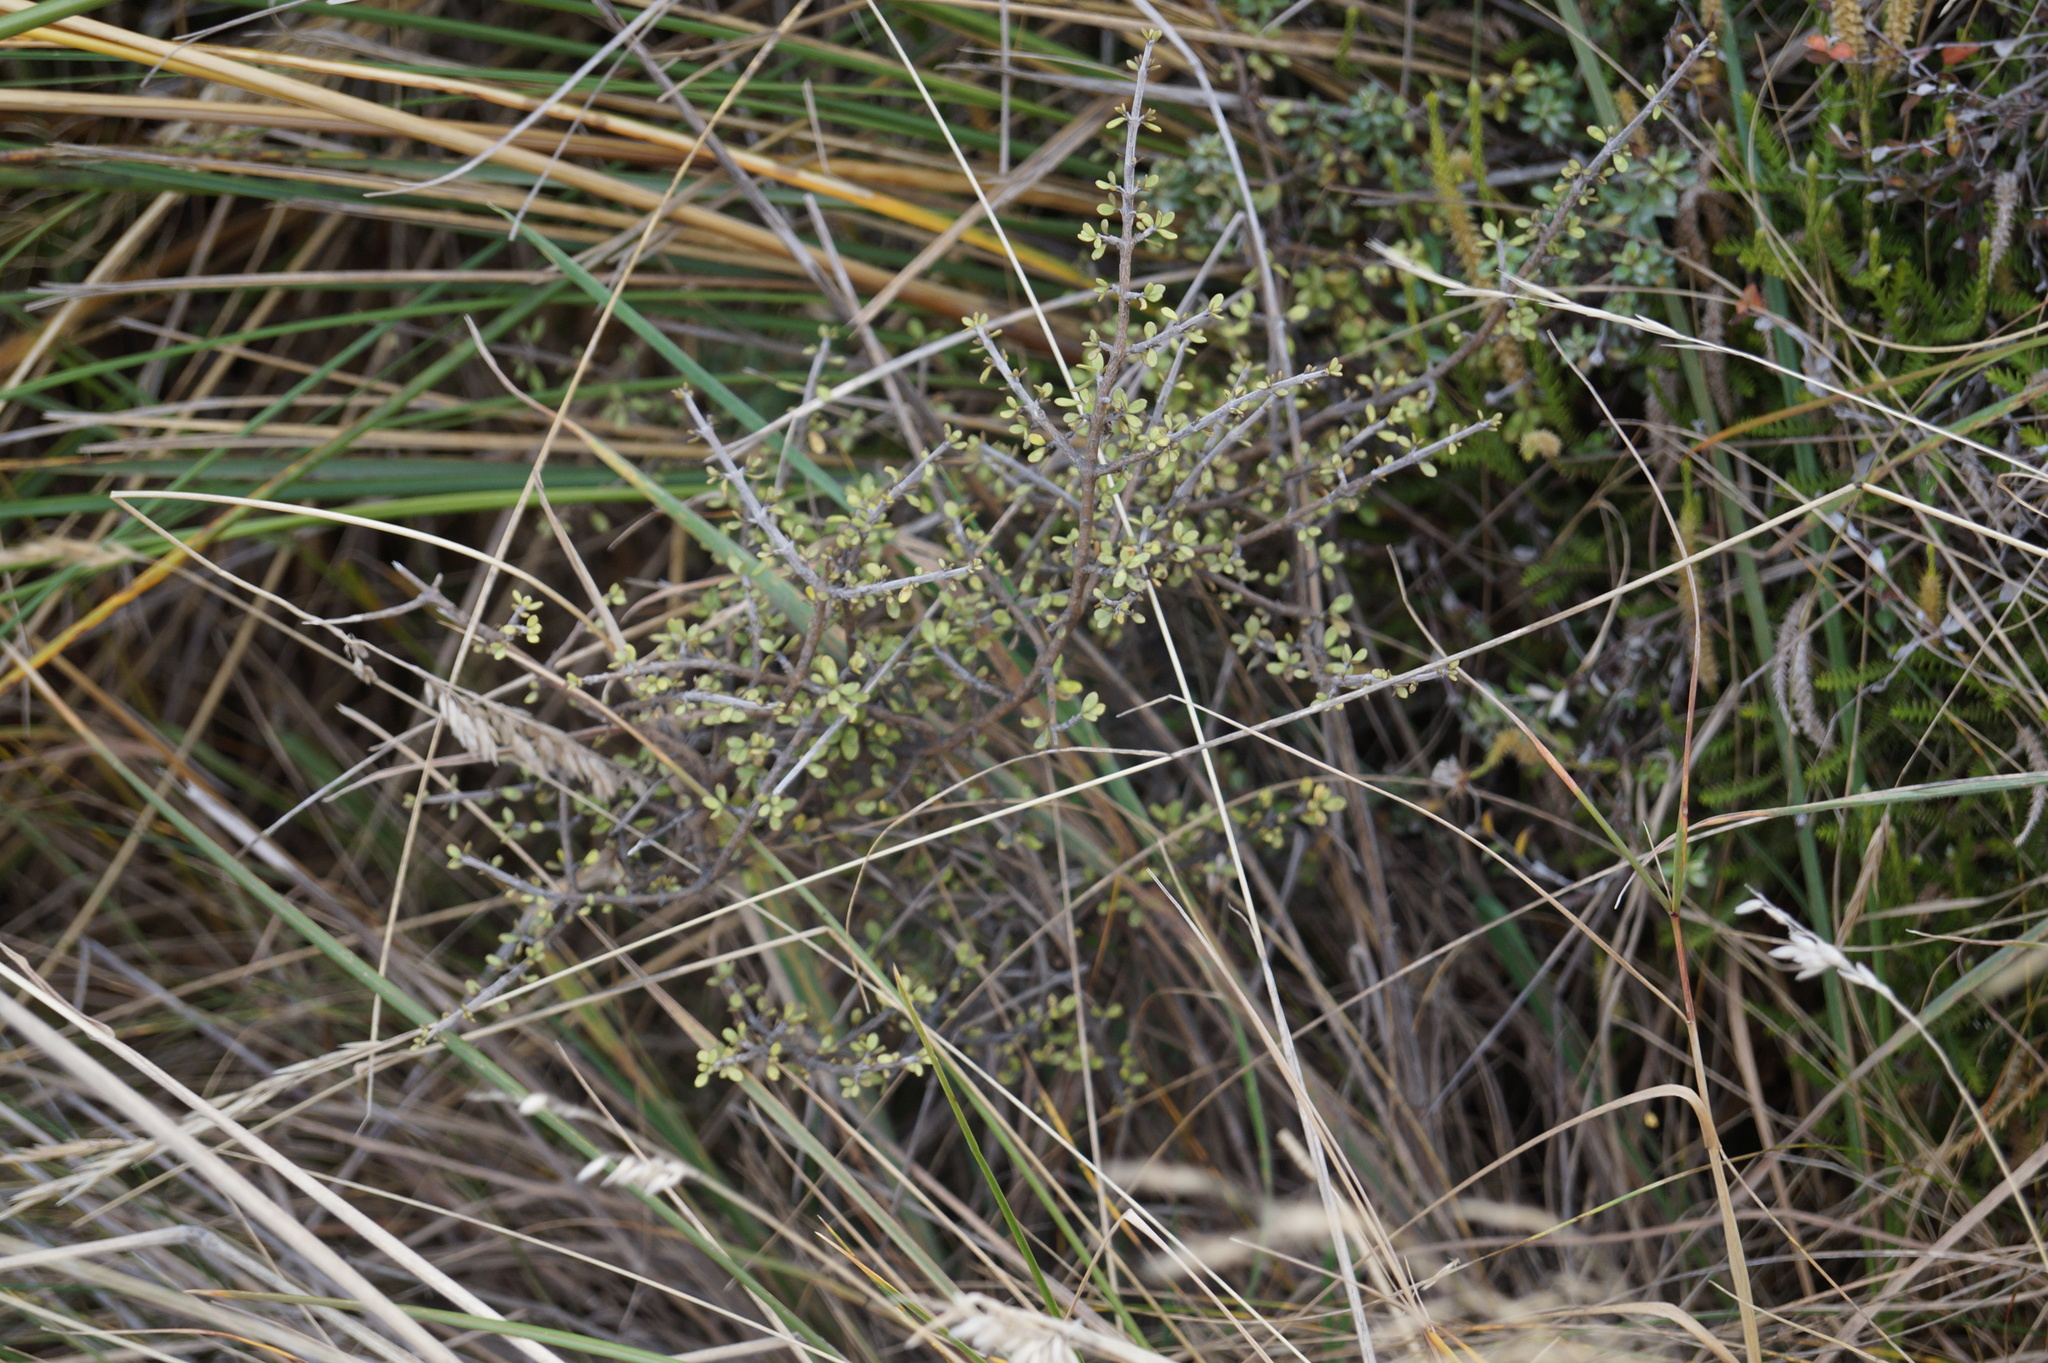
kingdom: Plantae
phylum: Tracheophyta
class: Magnoliopsida
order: Gentianales
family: Rubiaceae
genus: Coprosma
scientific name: Coprosma dumosa
